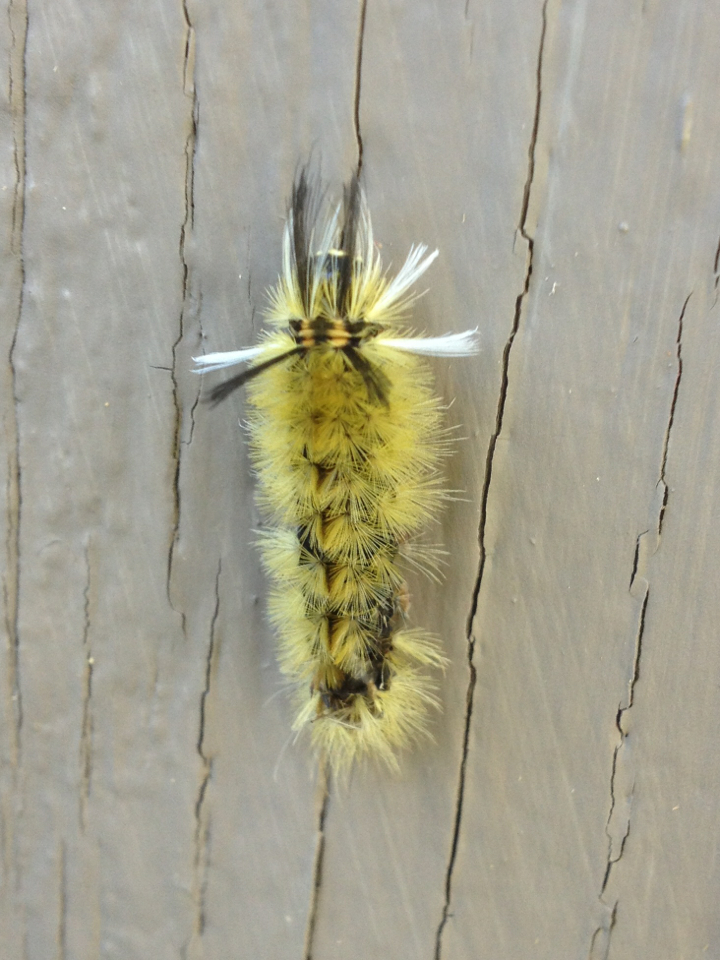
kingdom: Animalia
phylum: Arthropoda
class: Insecta
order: Lepidoptera
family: Erebidae
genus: Halysidota
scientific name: Halysidota tessellaris
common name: Banded tussock moth
